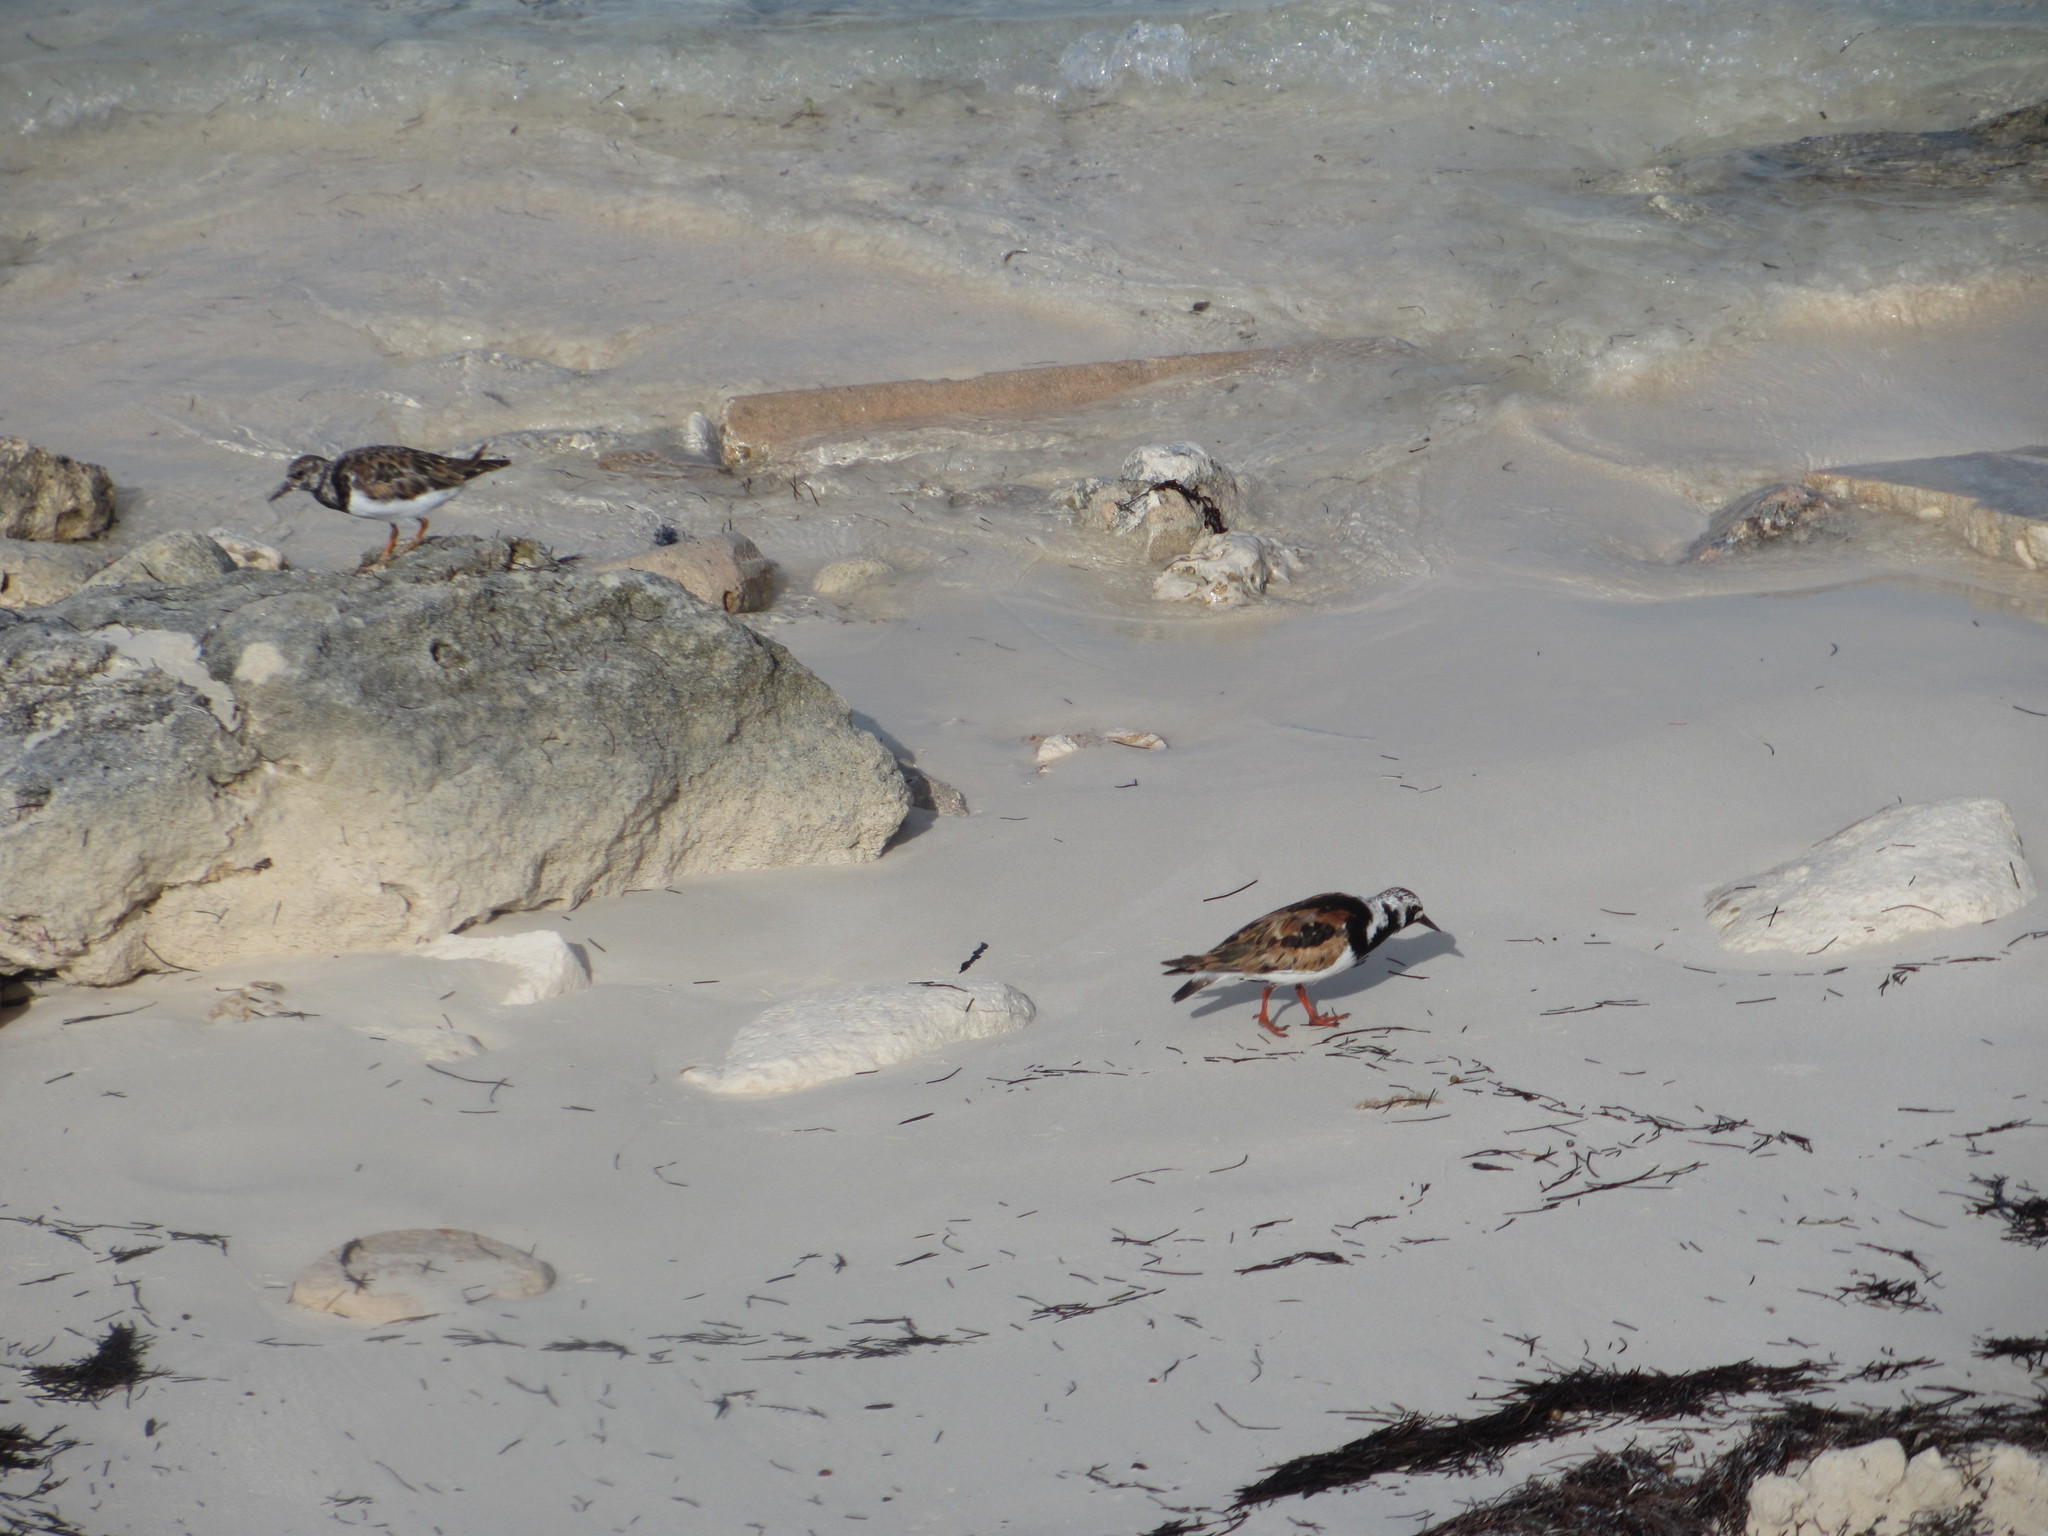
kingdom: Animalia
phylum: Chordata
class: Aves
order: Charadriiformes
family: Scolopacidae
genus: Arenaria
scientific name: Arenaria interpres
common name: Ruddy turnstone
